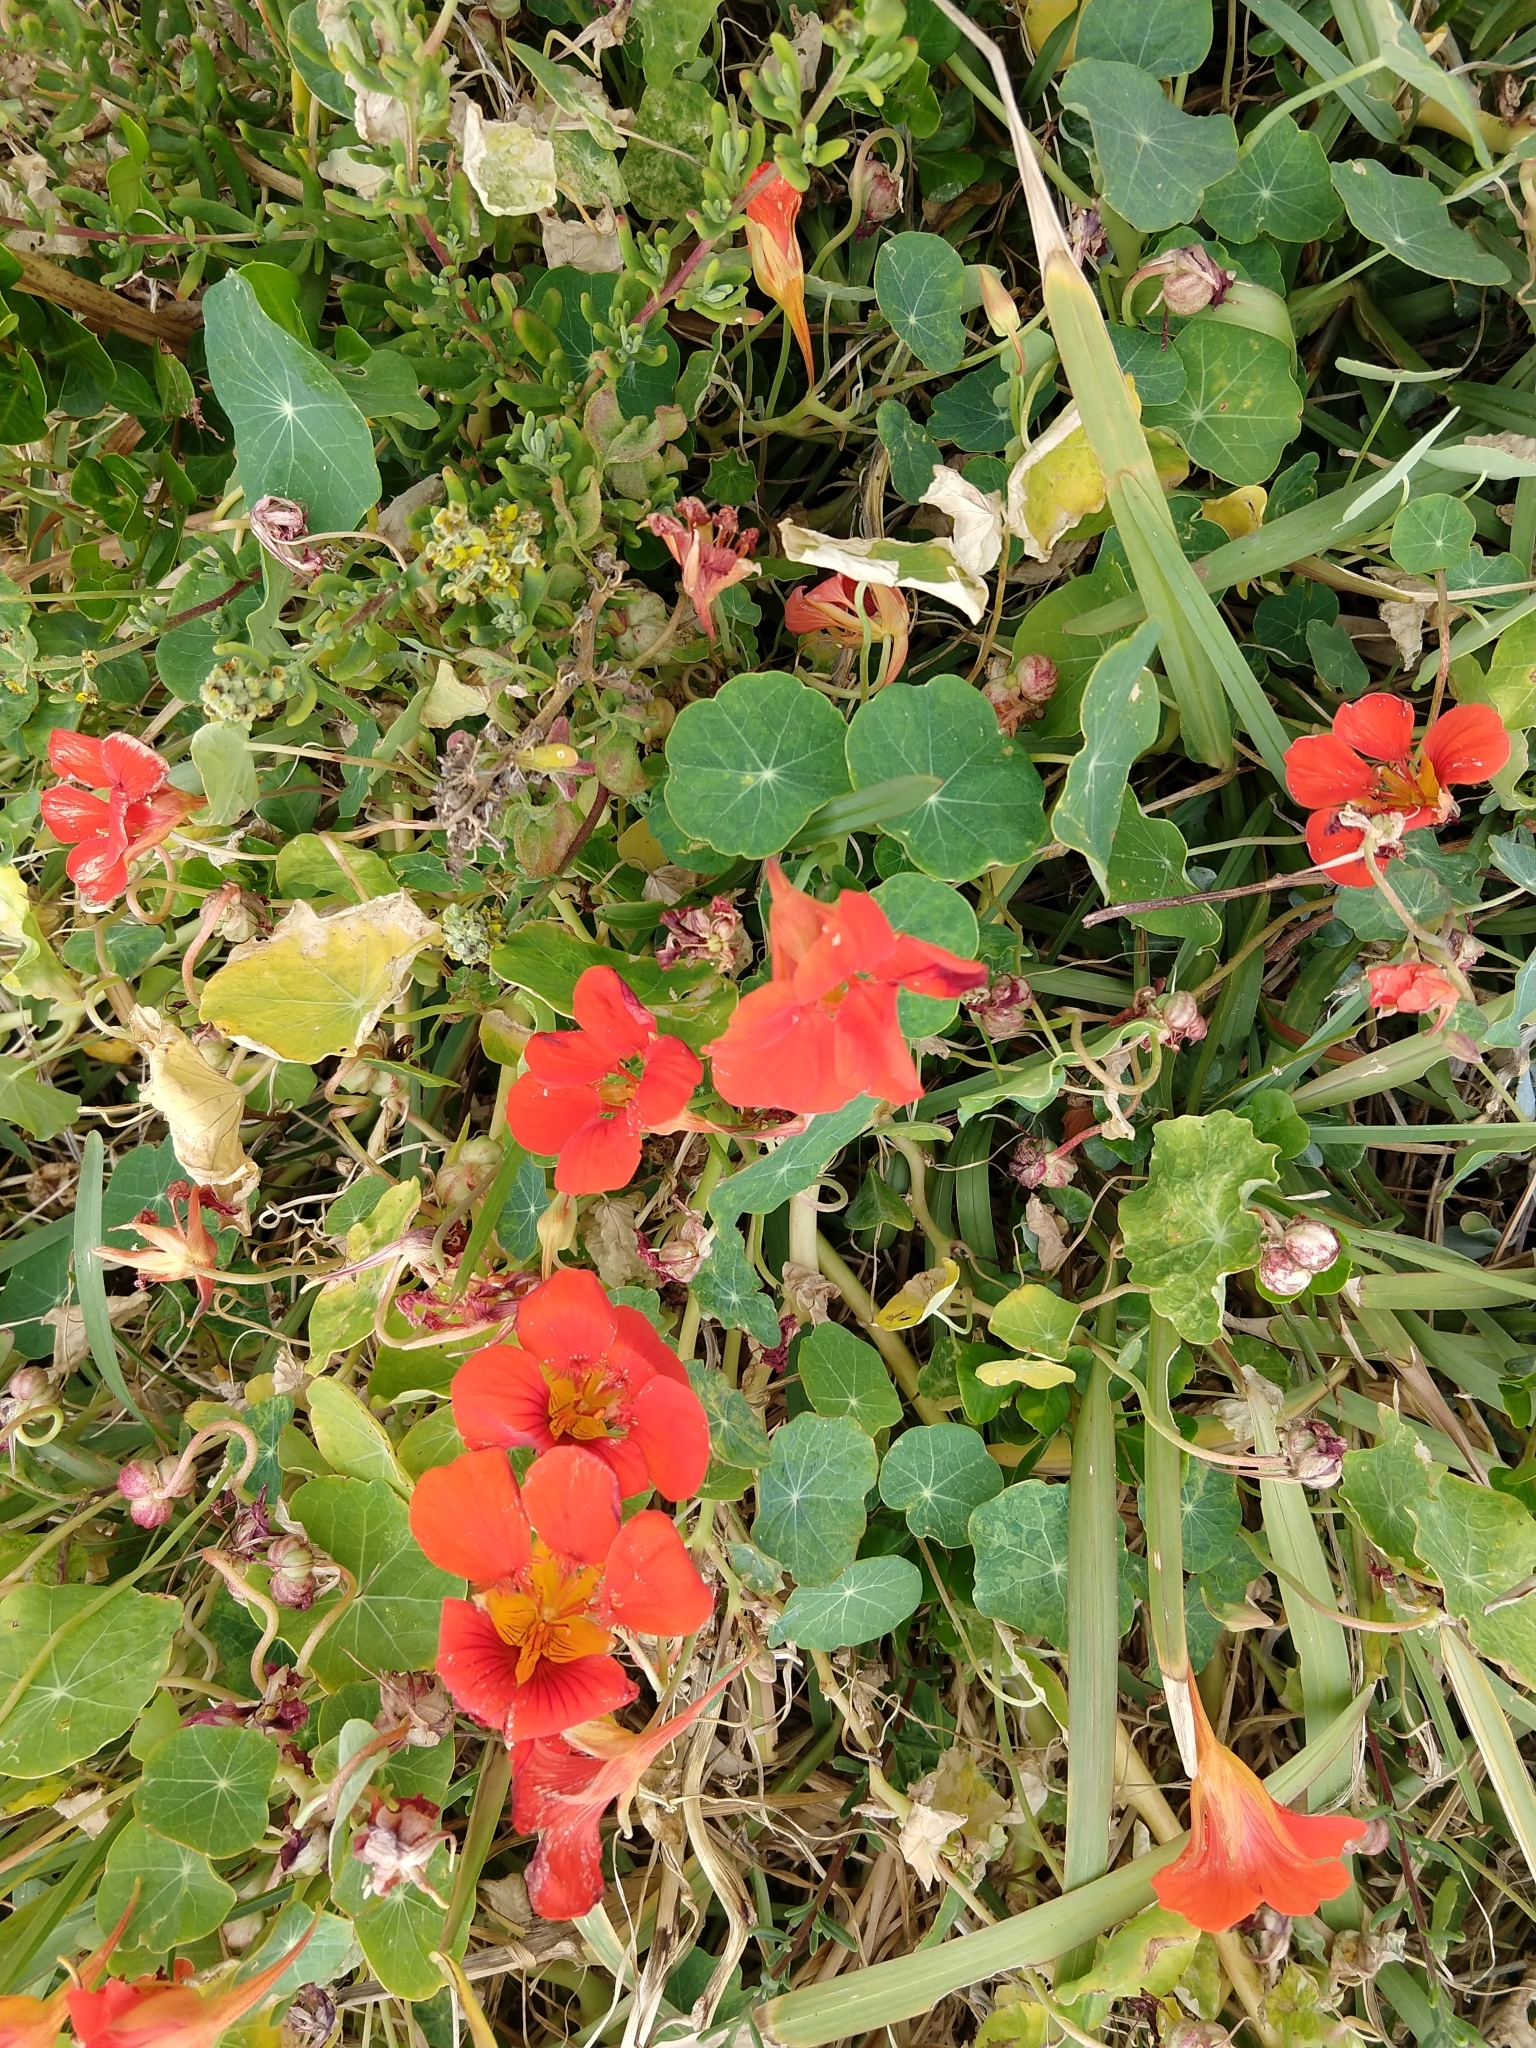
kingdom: Plantae
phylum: Tracheophyta
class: Magnoliopsida
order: Brassicales
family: Tropaeolaceae
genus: Tropaeolum
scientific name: Tropaeolum majus
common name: Nasturtium
